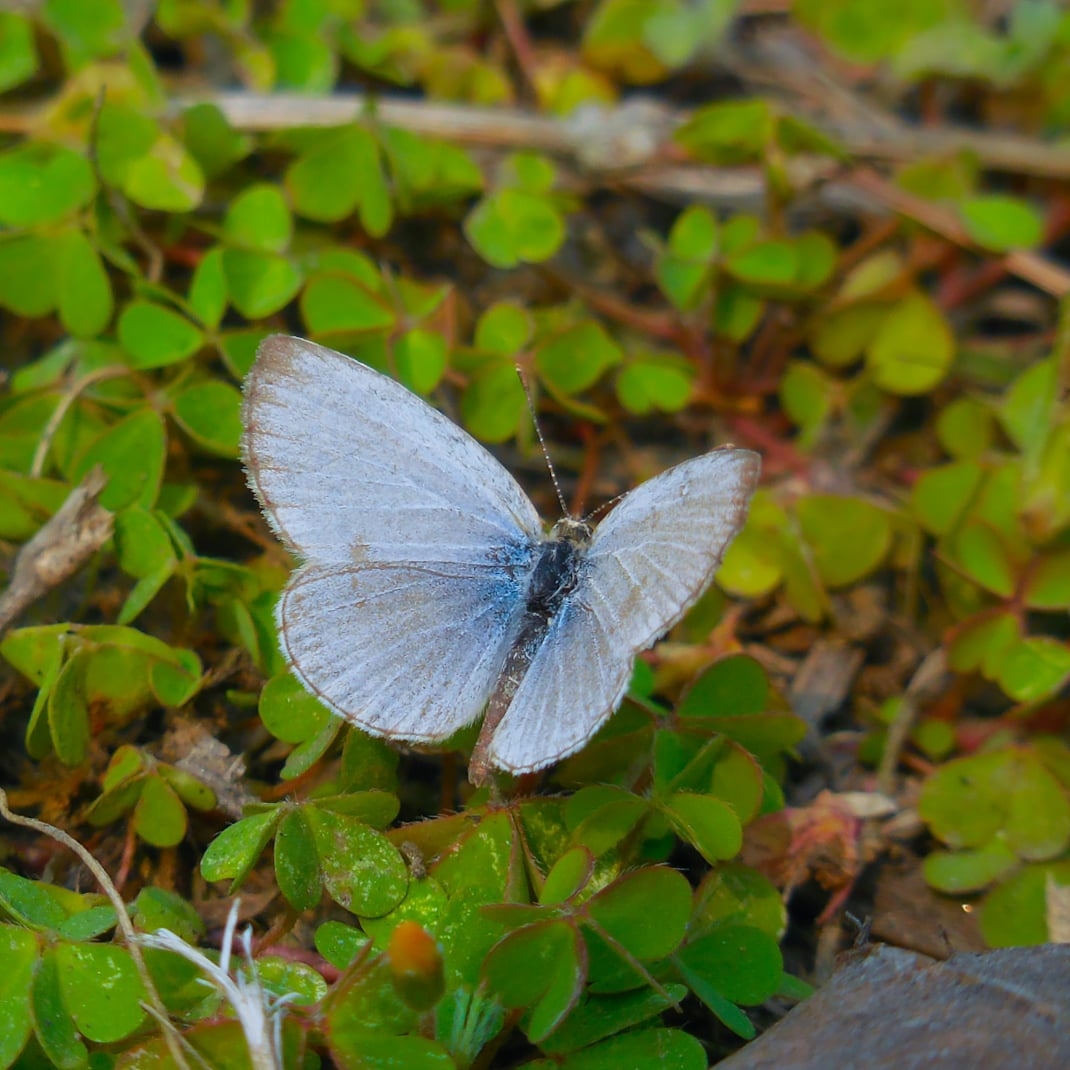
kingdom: Animalia
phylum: Arthropoda
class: Insecta
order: Lepidoptera
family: Lycaenidae
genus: Pseudozizeeria
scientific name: Pseudozizeeria maha
